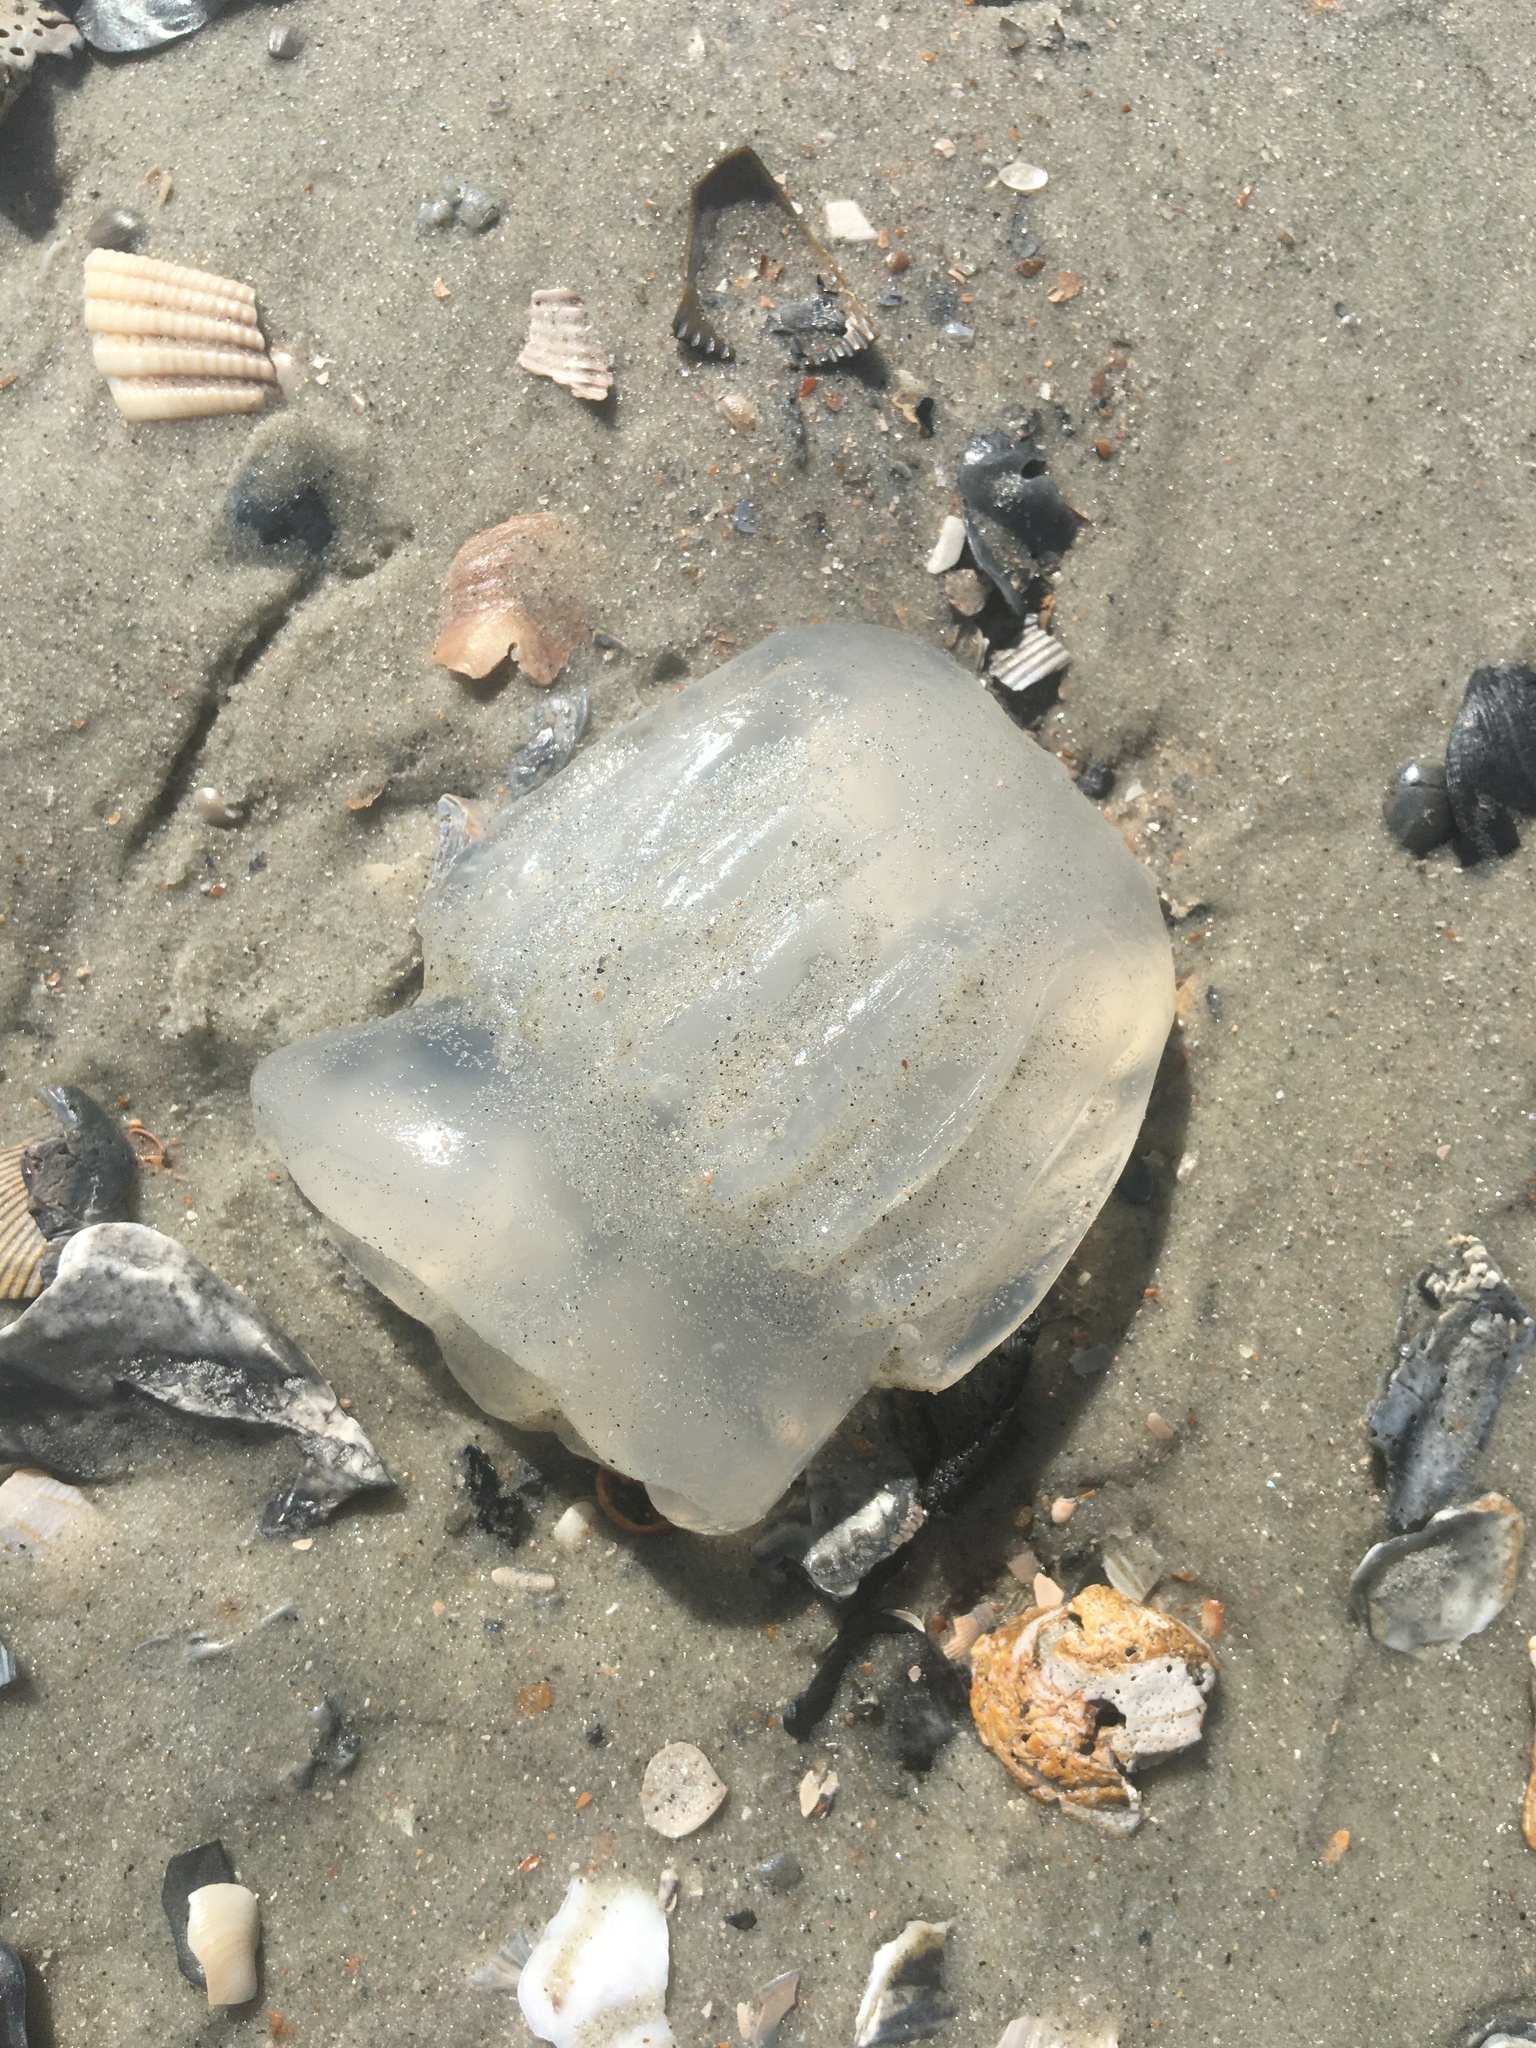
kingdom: Animalia
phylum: Cnidaria
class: Scyphozoa
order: Rhizostomeae
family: Stomolophidae
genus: Stomolophus
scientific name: Stomolophus meleagris
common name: Cabbagehead
